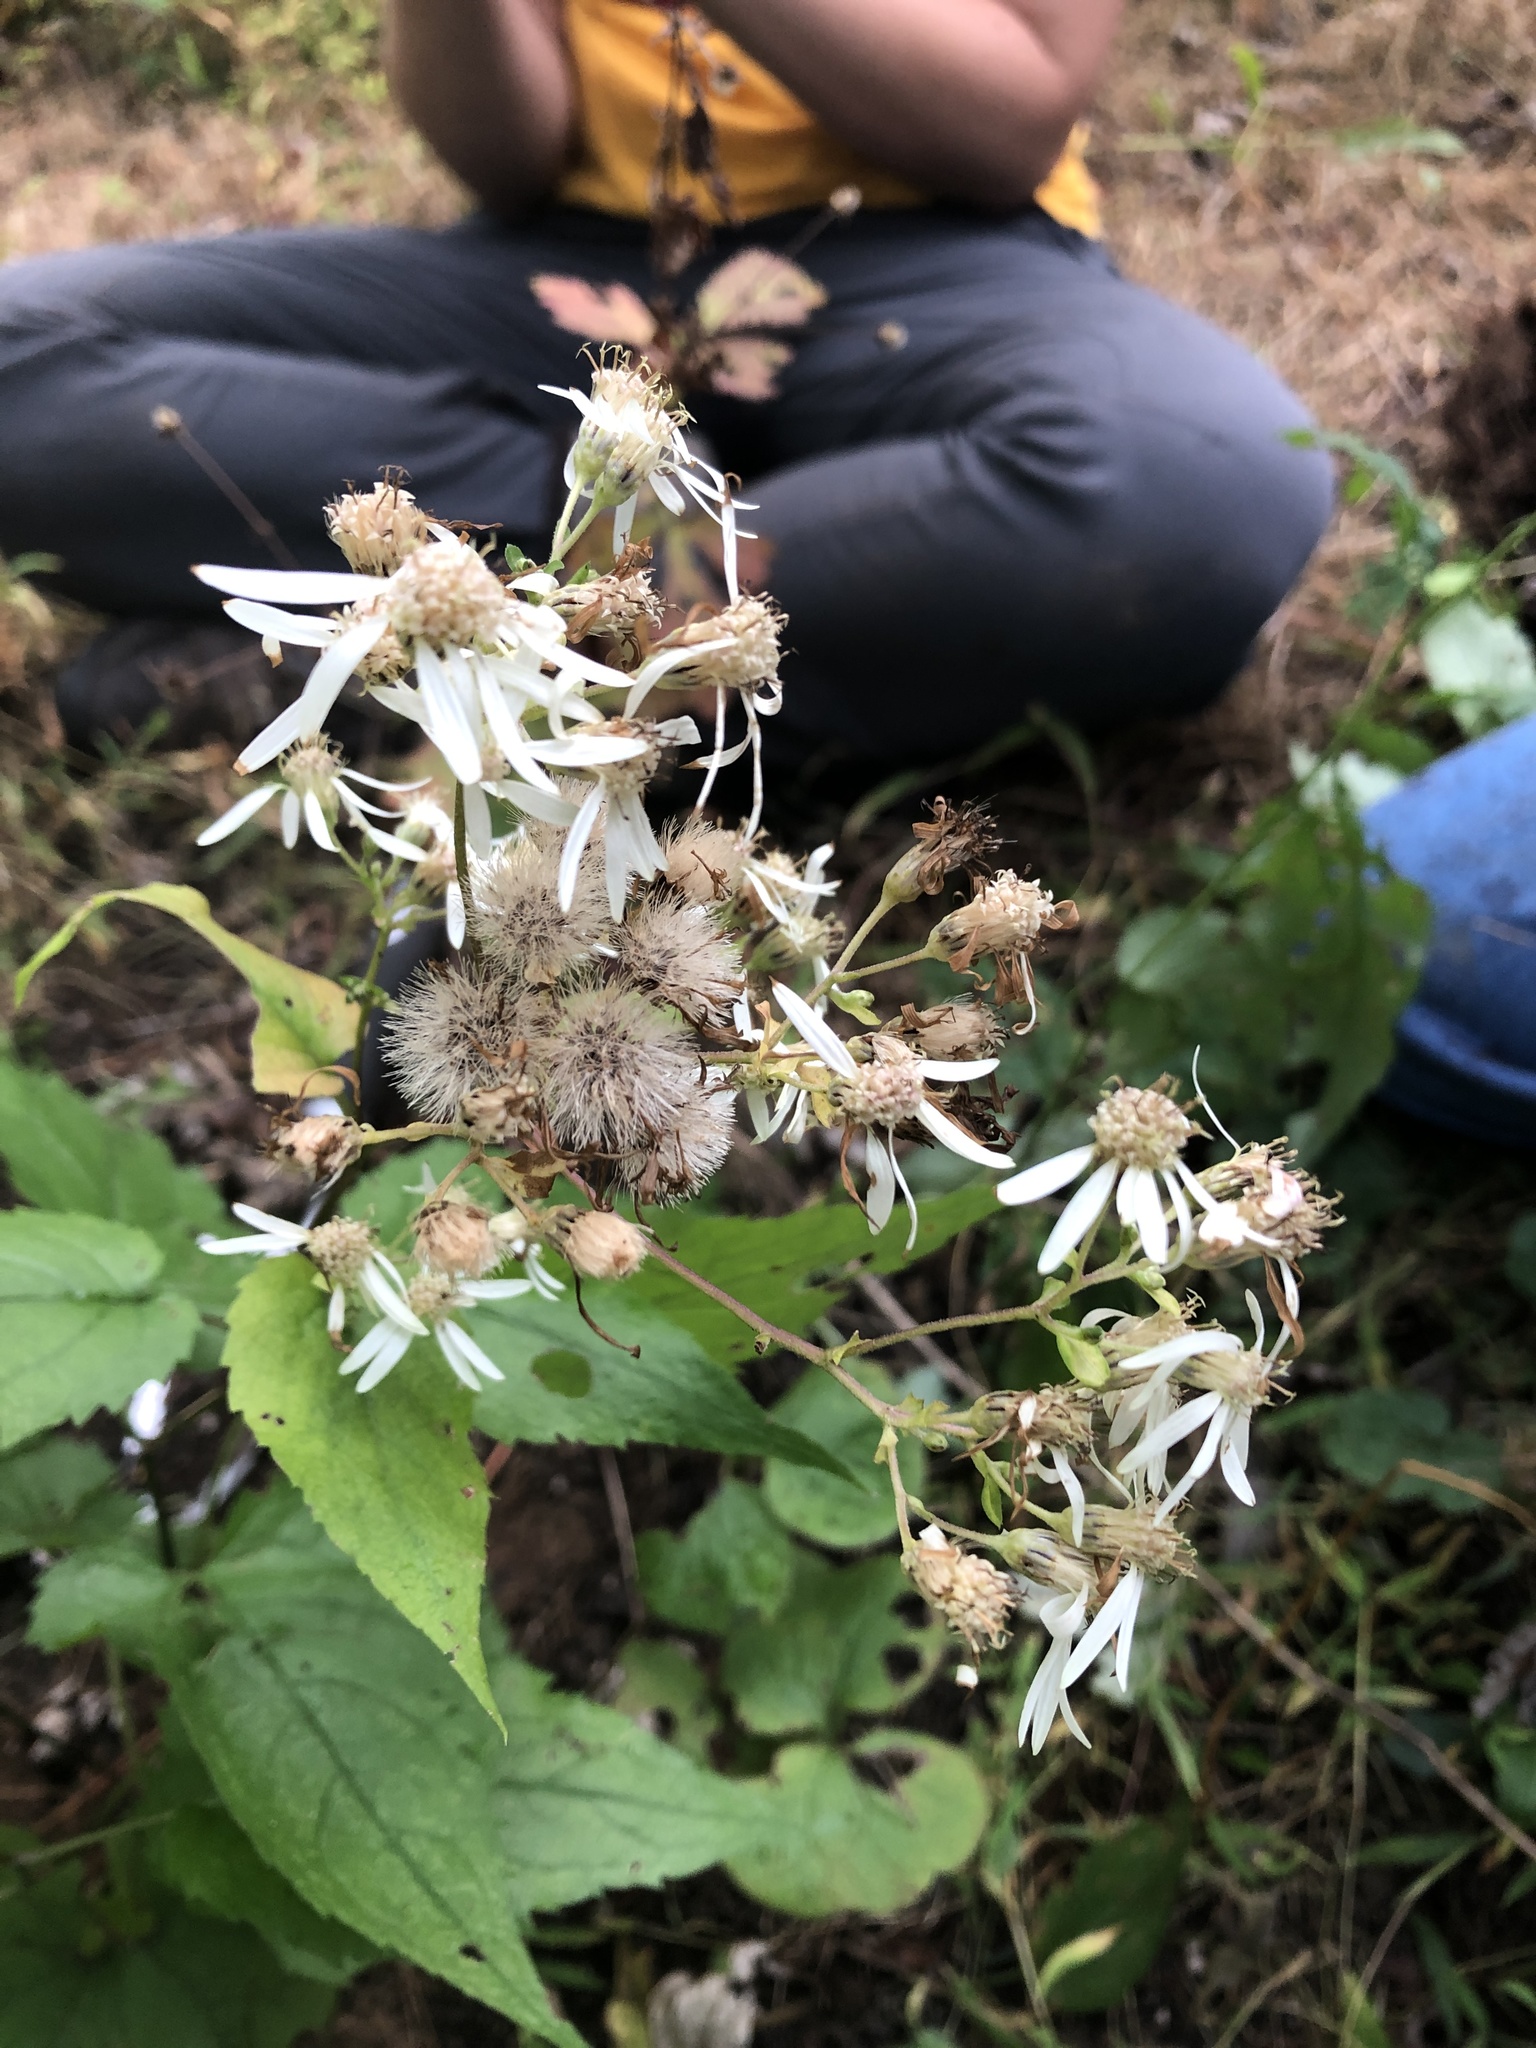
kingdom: Plantae
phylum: Tracheophyta
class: Magnoliopsida
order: Asterales
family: Asteraceae
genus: Eurybia
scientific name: Eurybia divaricata
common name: White wood aster
